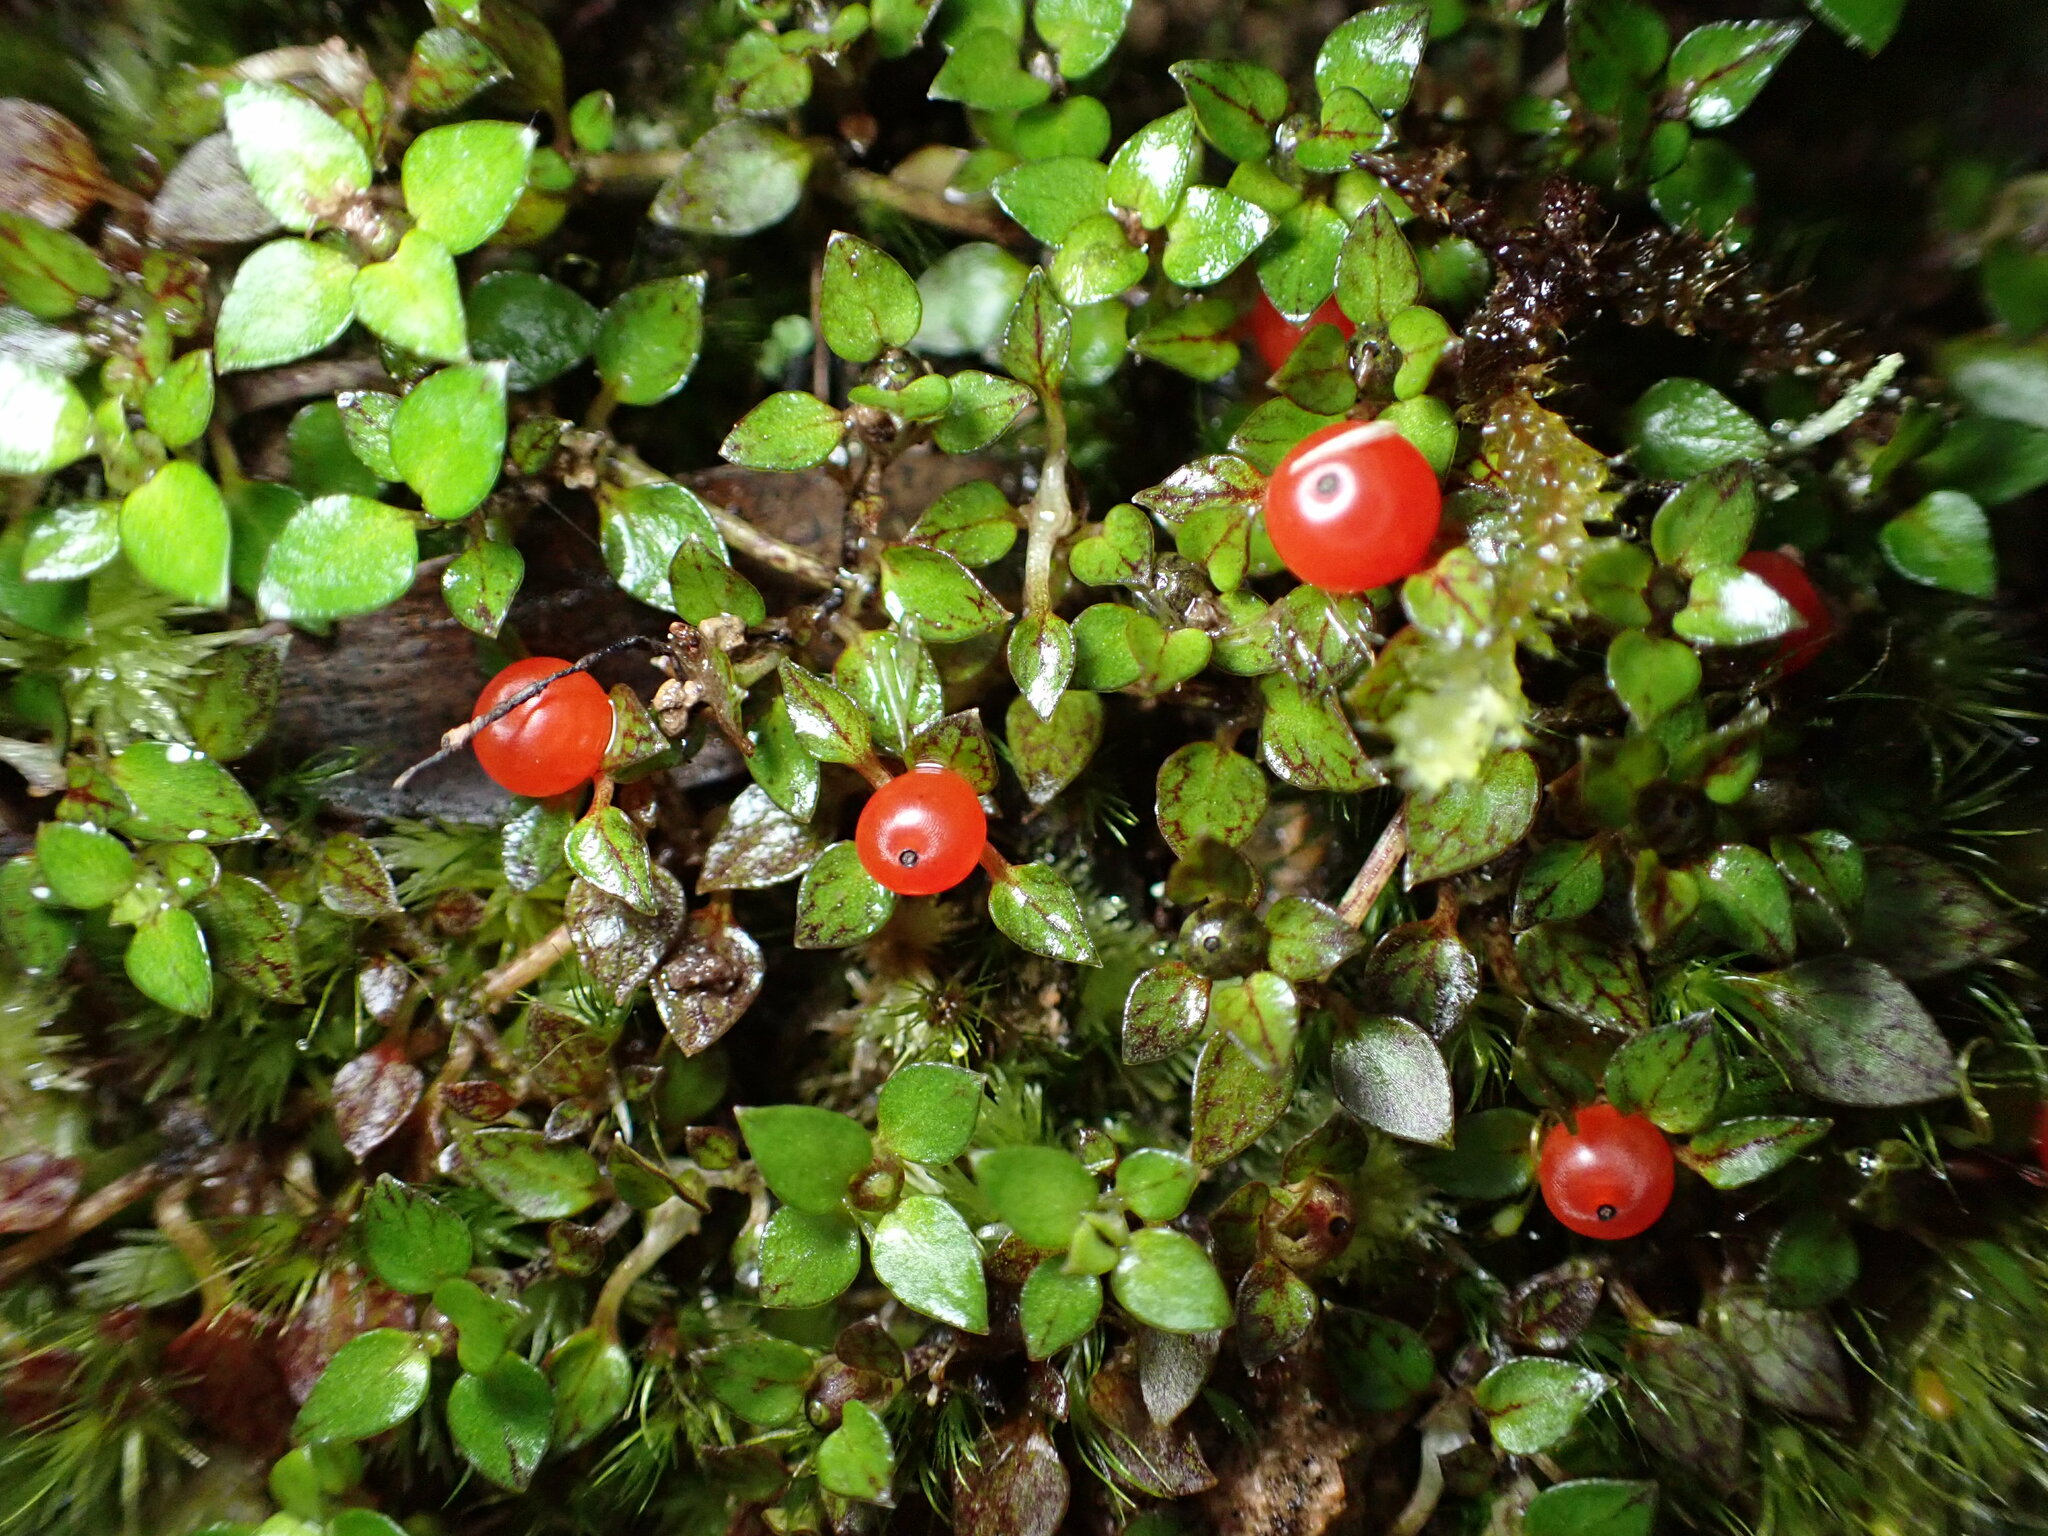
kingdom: Plantae
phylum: Tracheophyta
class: Magnoliopsida
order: Gentianales
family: Rubiaceae
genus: Nertera
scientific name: Nertera granadensis
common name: Beadplant
